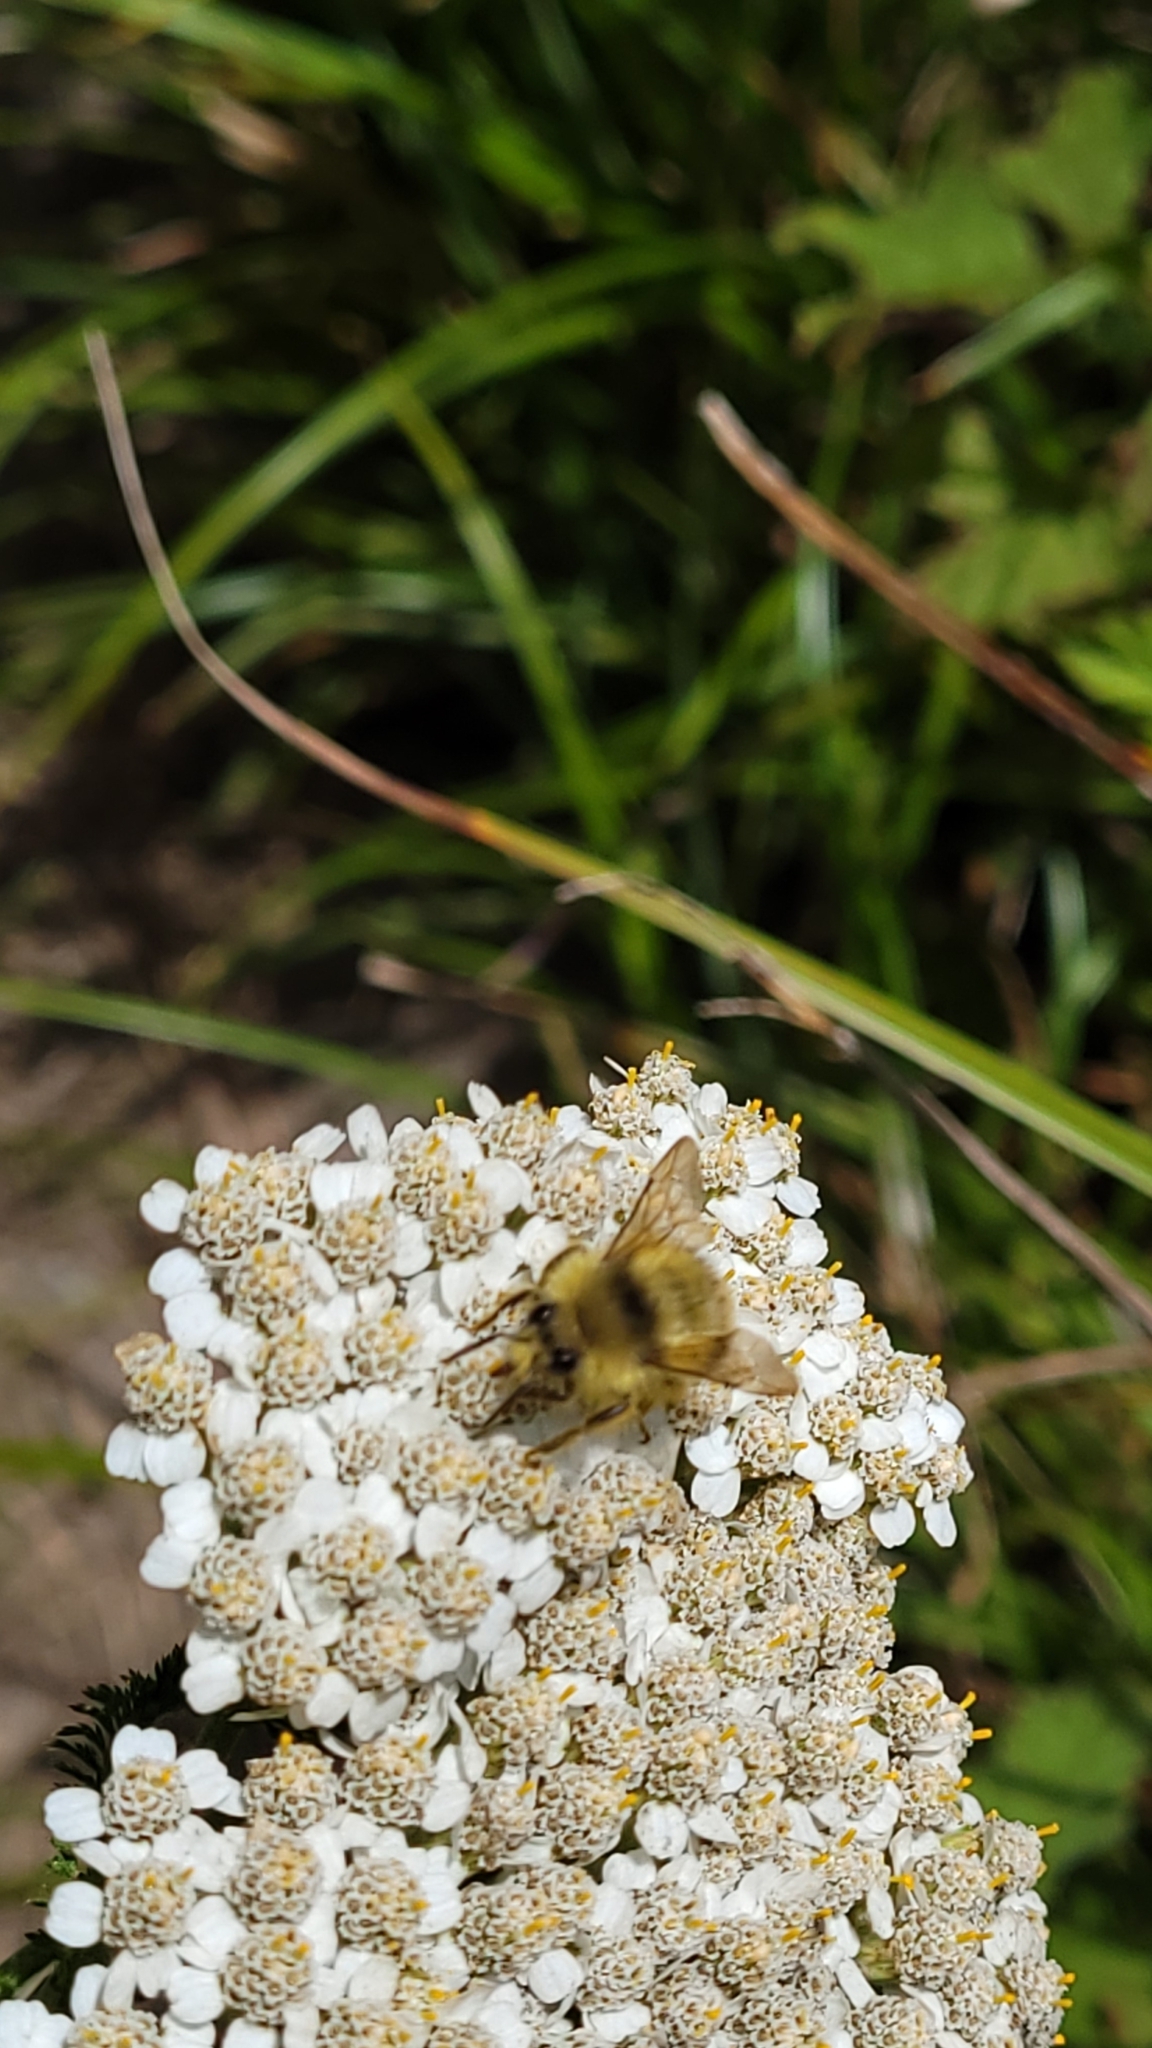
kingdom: Animalia
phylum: Arthropoda
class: Insecta
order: Hymenoptera
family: Apidae
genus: Bombus
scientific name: Bombus mixtus
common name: Fuzzy-horned bumble bee
